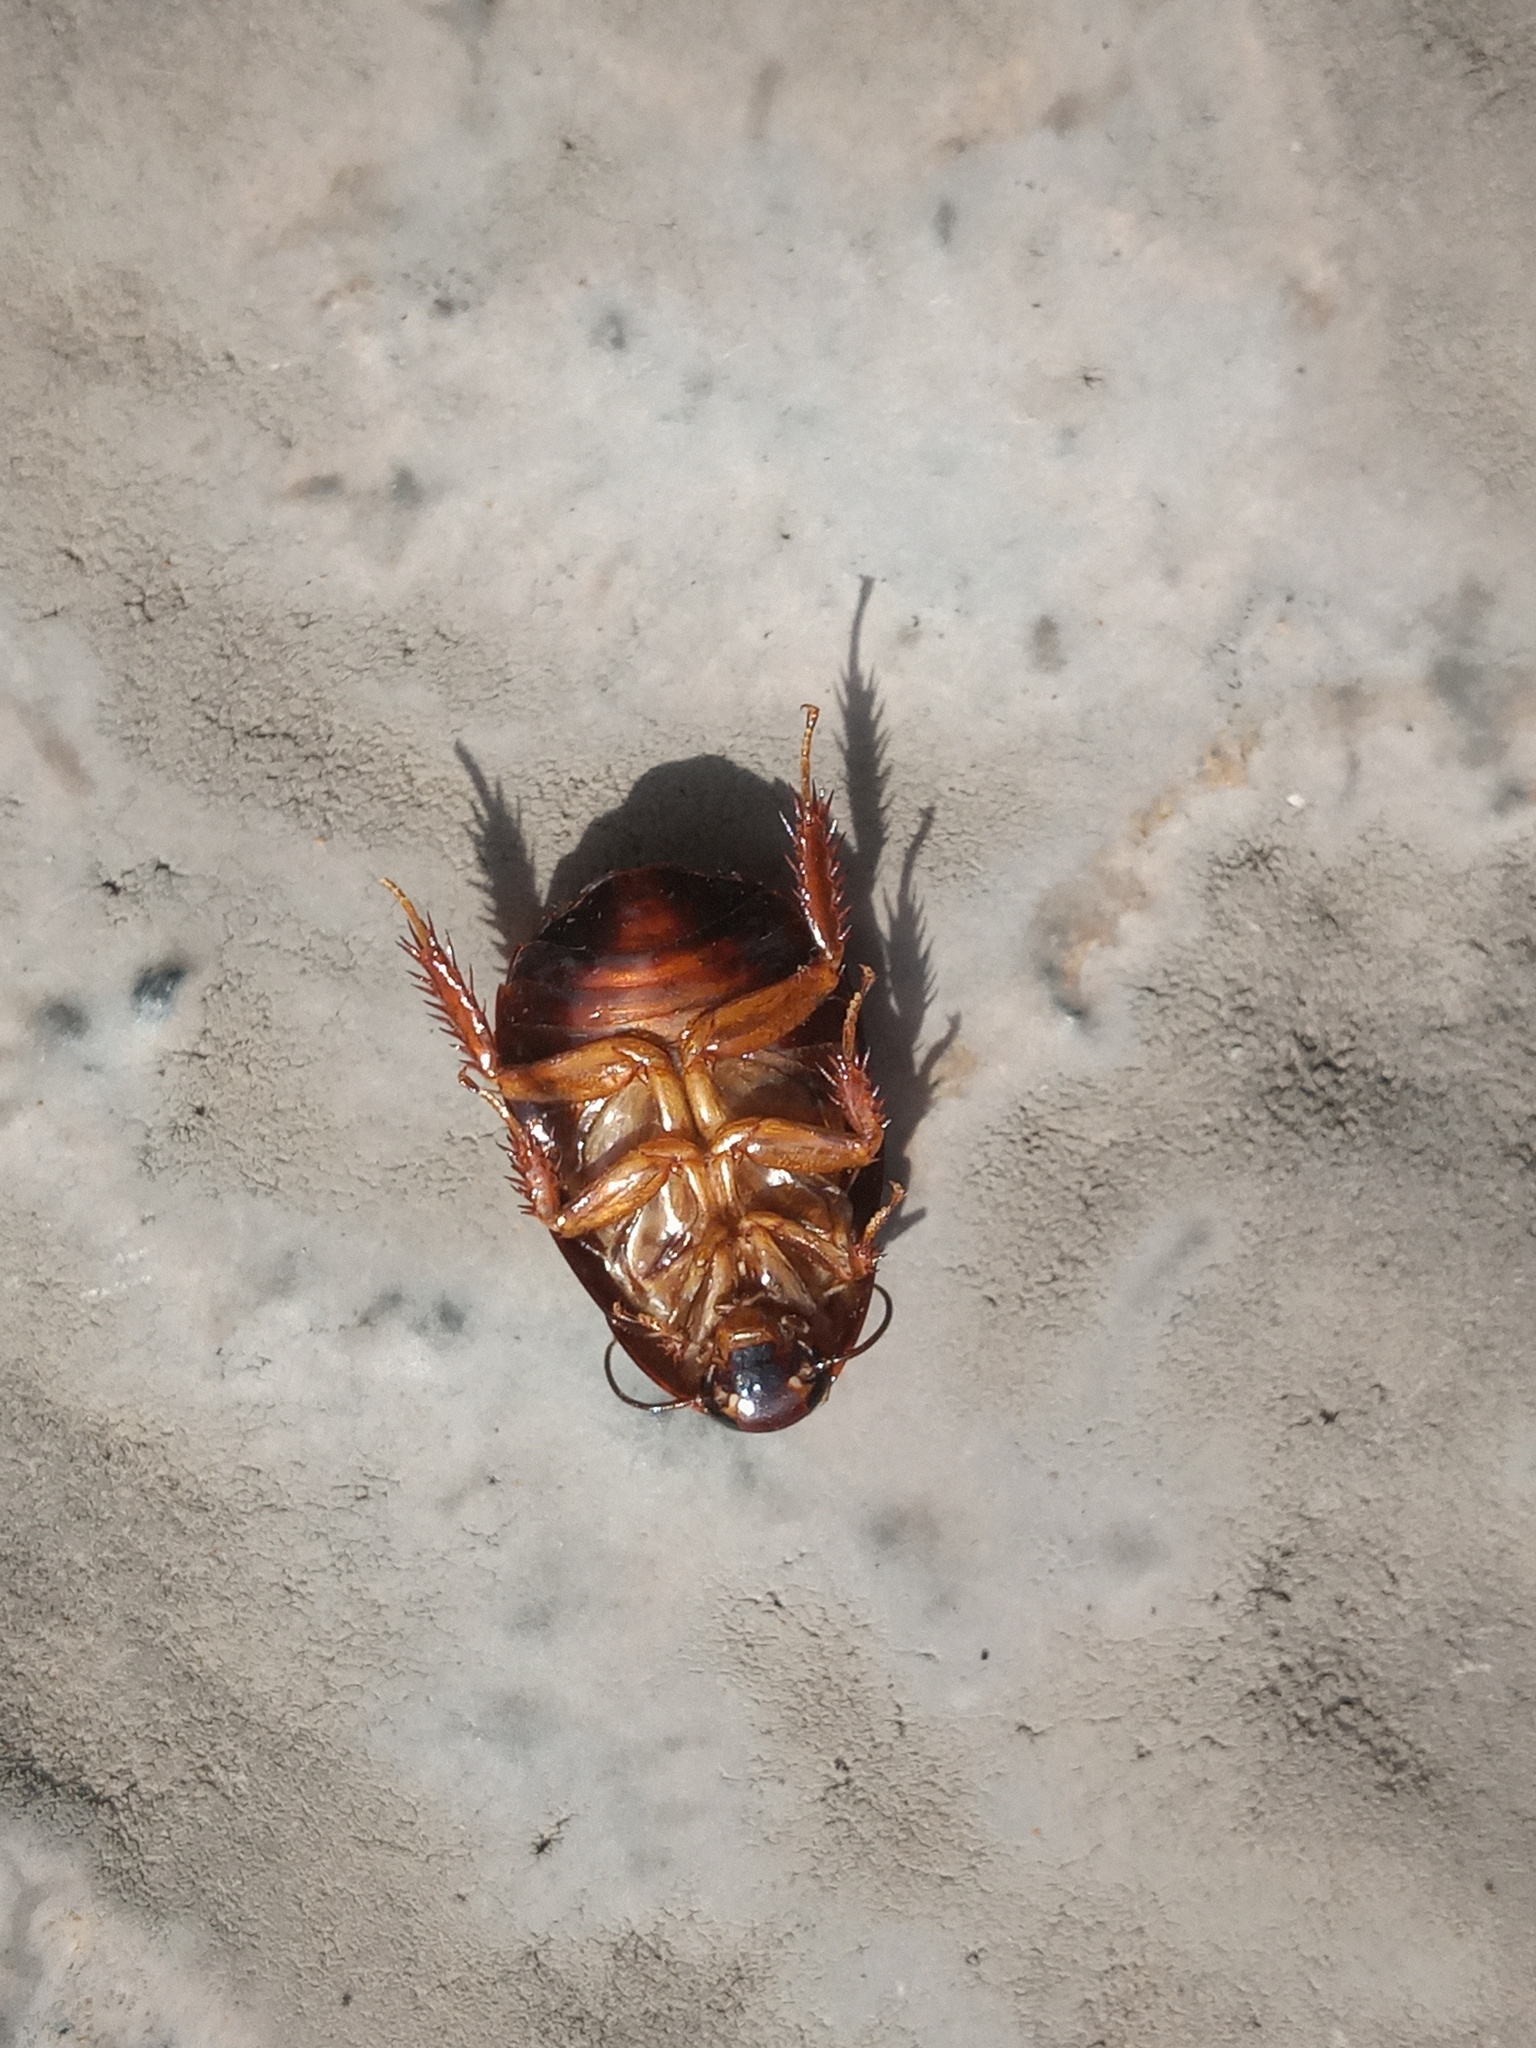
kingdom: Animalia
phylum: Arthropoda
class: Insecta
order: Blattodea
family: Blaberidae
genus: Pycnoscelus
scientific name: Pycnoscelus surinamensis
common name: Surinam cockroach
